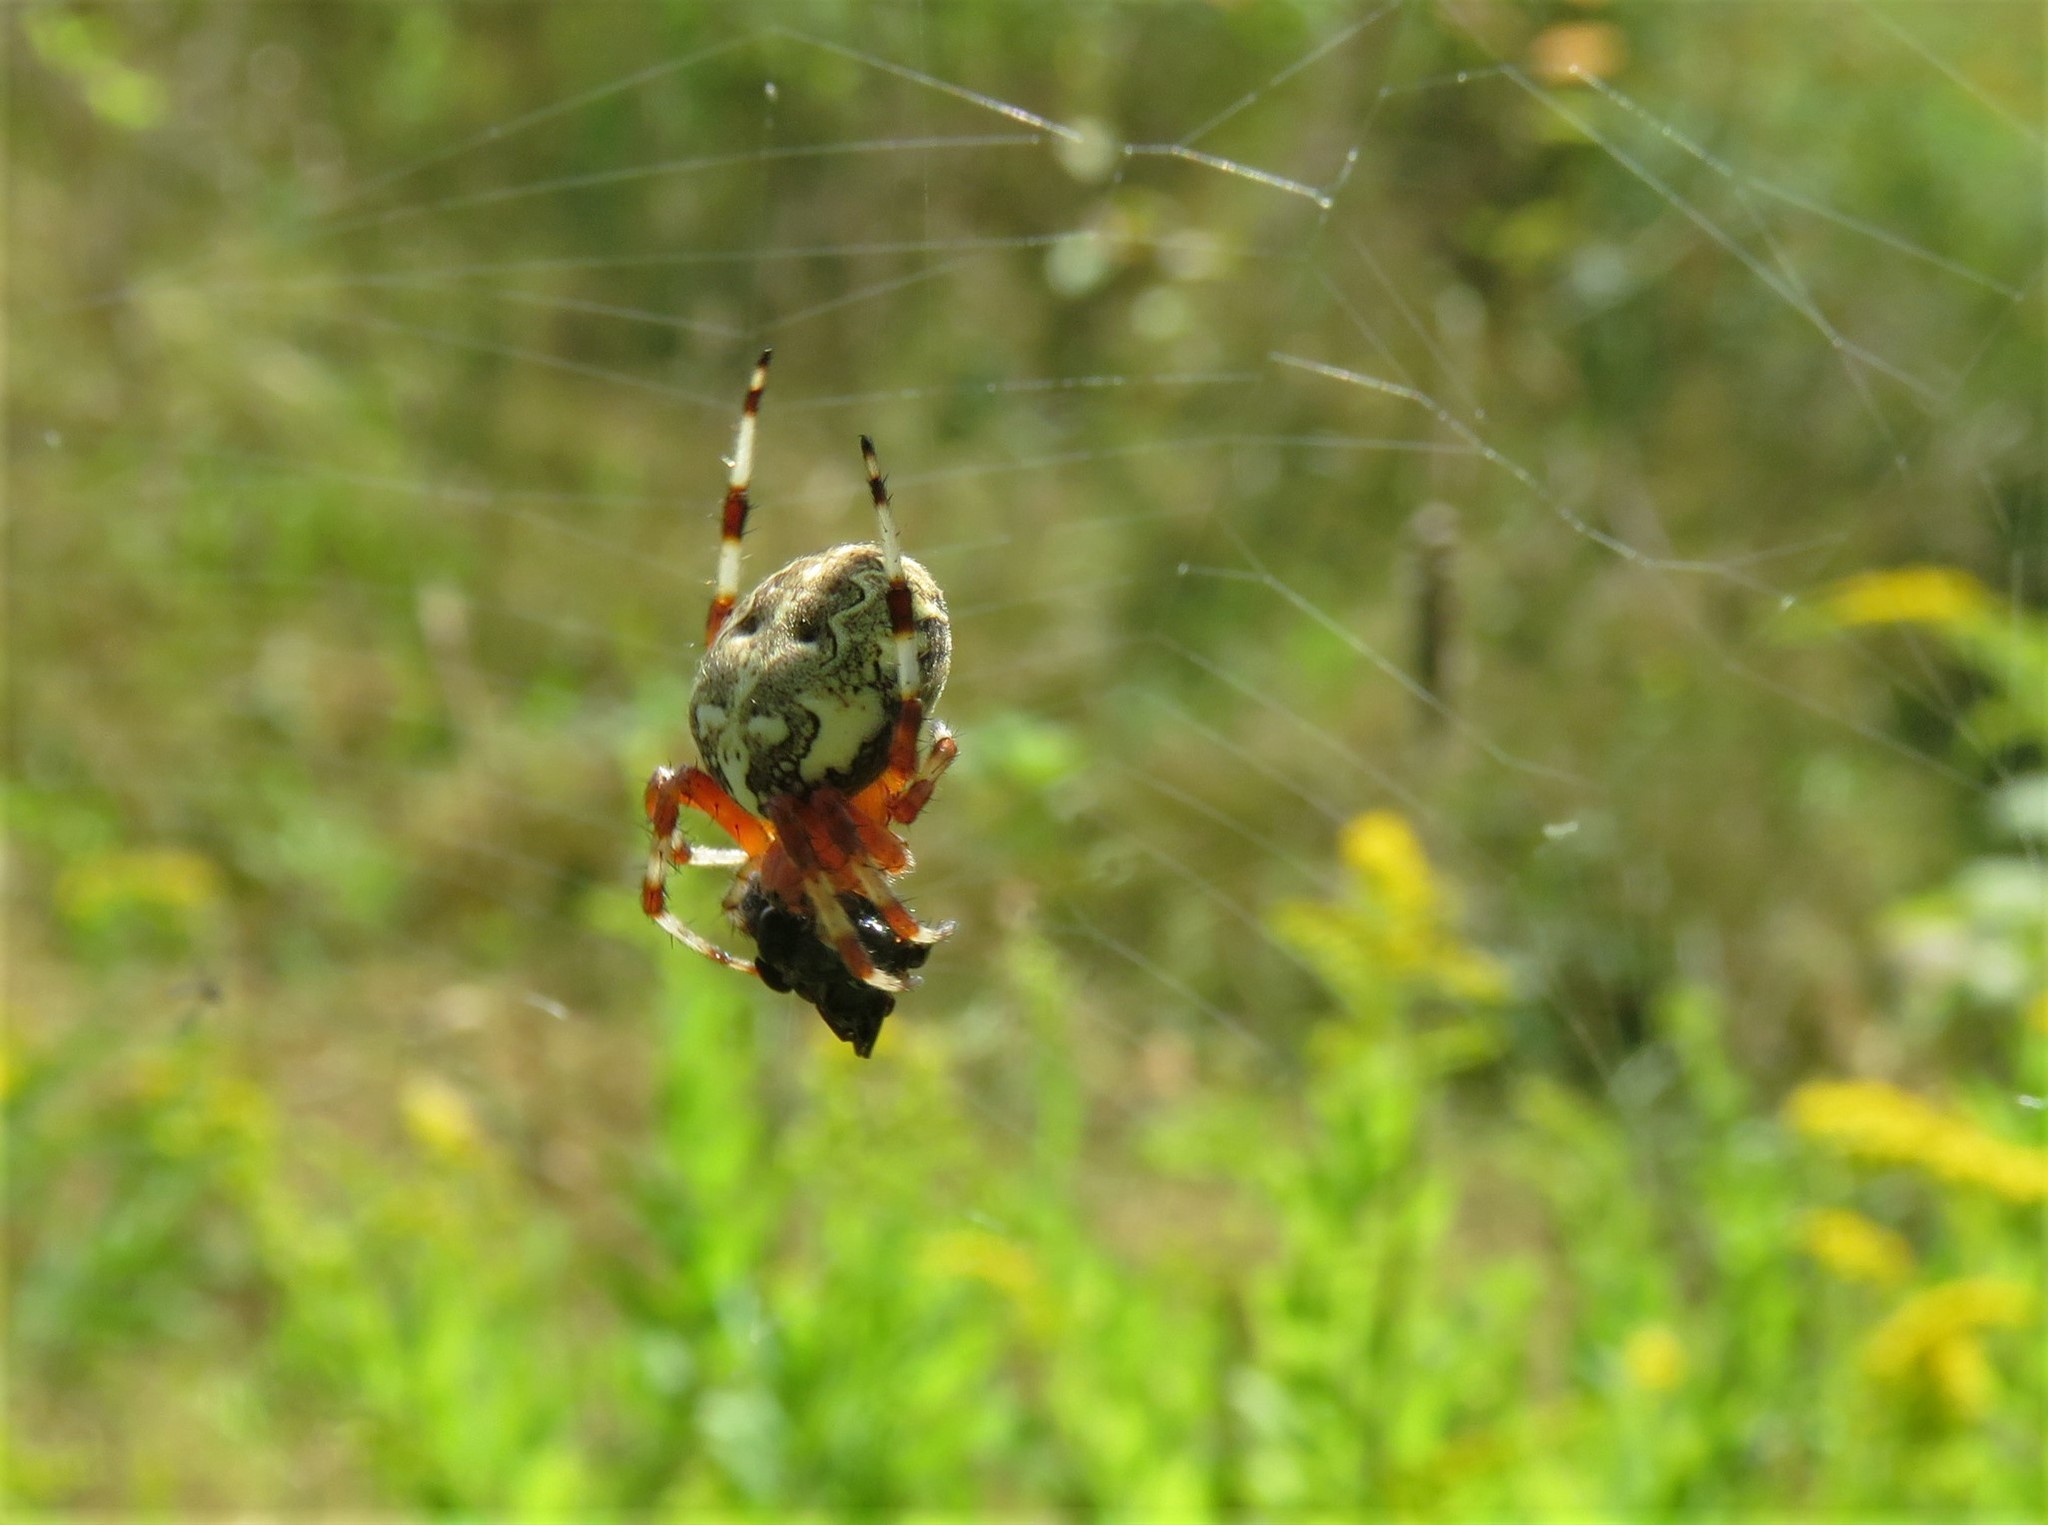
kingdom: Animalia
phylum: Arthropoda
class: Arachnida
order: Araneae
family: Araneidae
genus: Araneus
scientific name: Araneus marmoreus
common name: Marbled orbweaver
